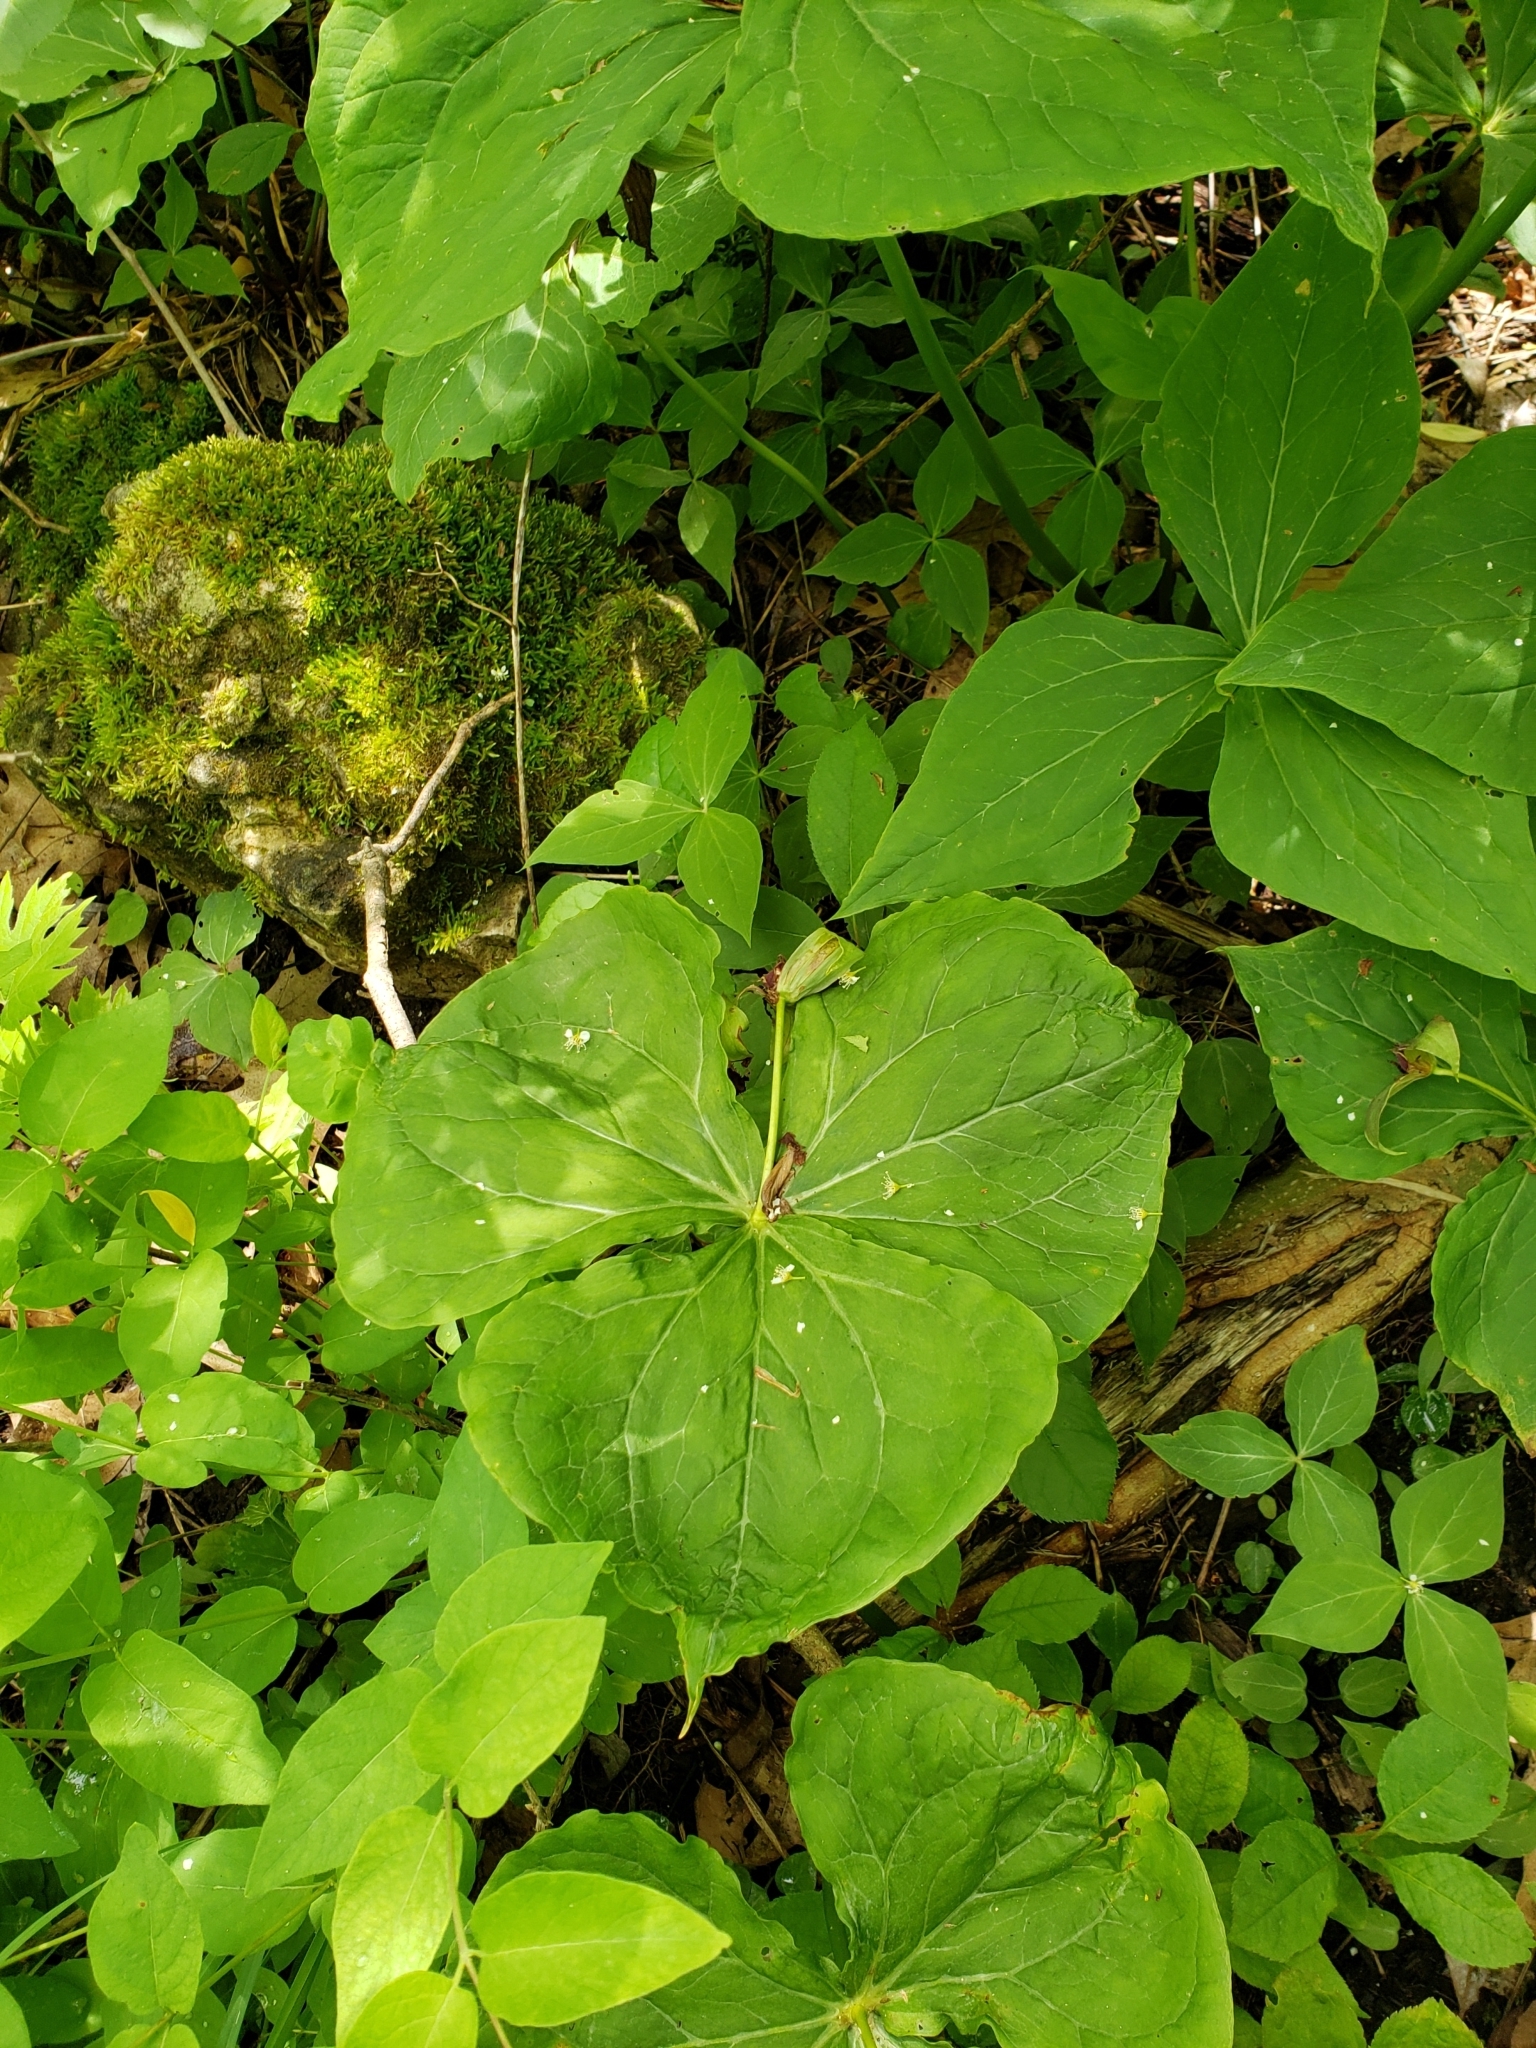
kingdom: Plantae
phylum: Tracheophyta
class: Liliopsida
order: Liliales
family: Melanthiaceae
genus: Trillium
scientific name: Trillium erectum
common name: Purple trillium
